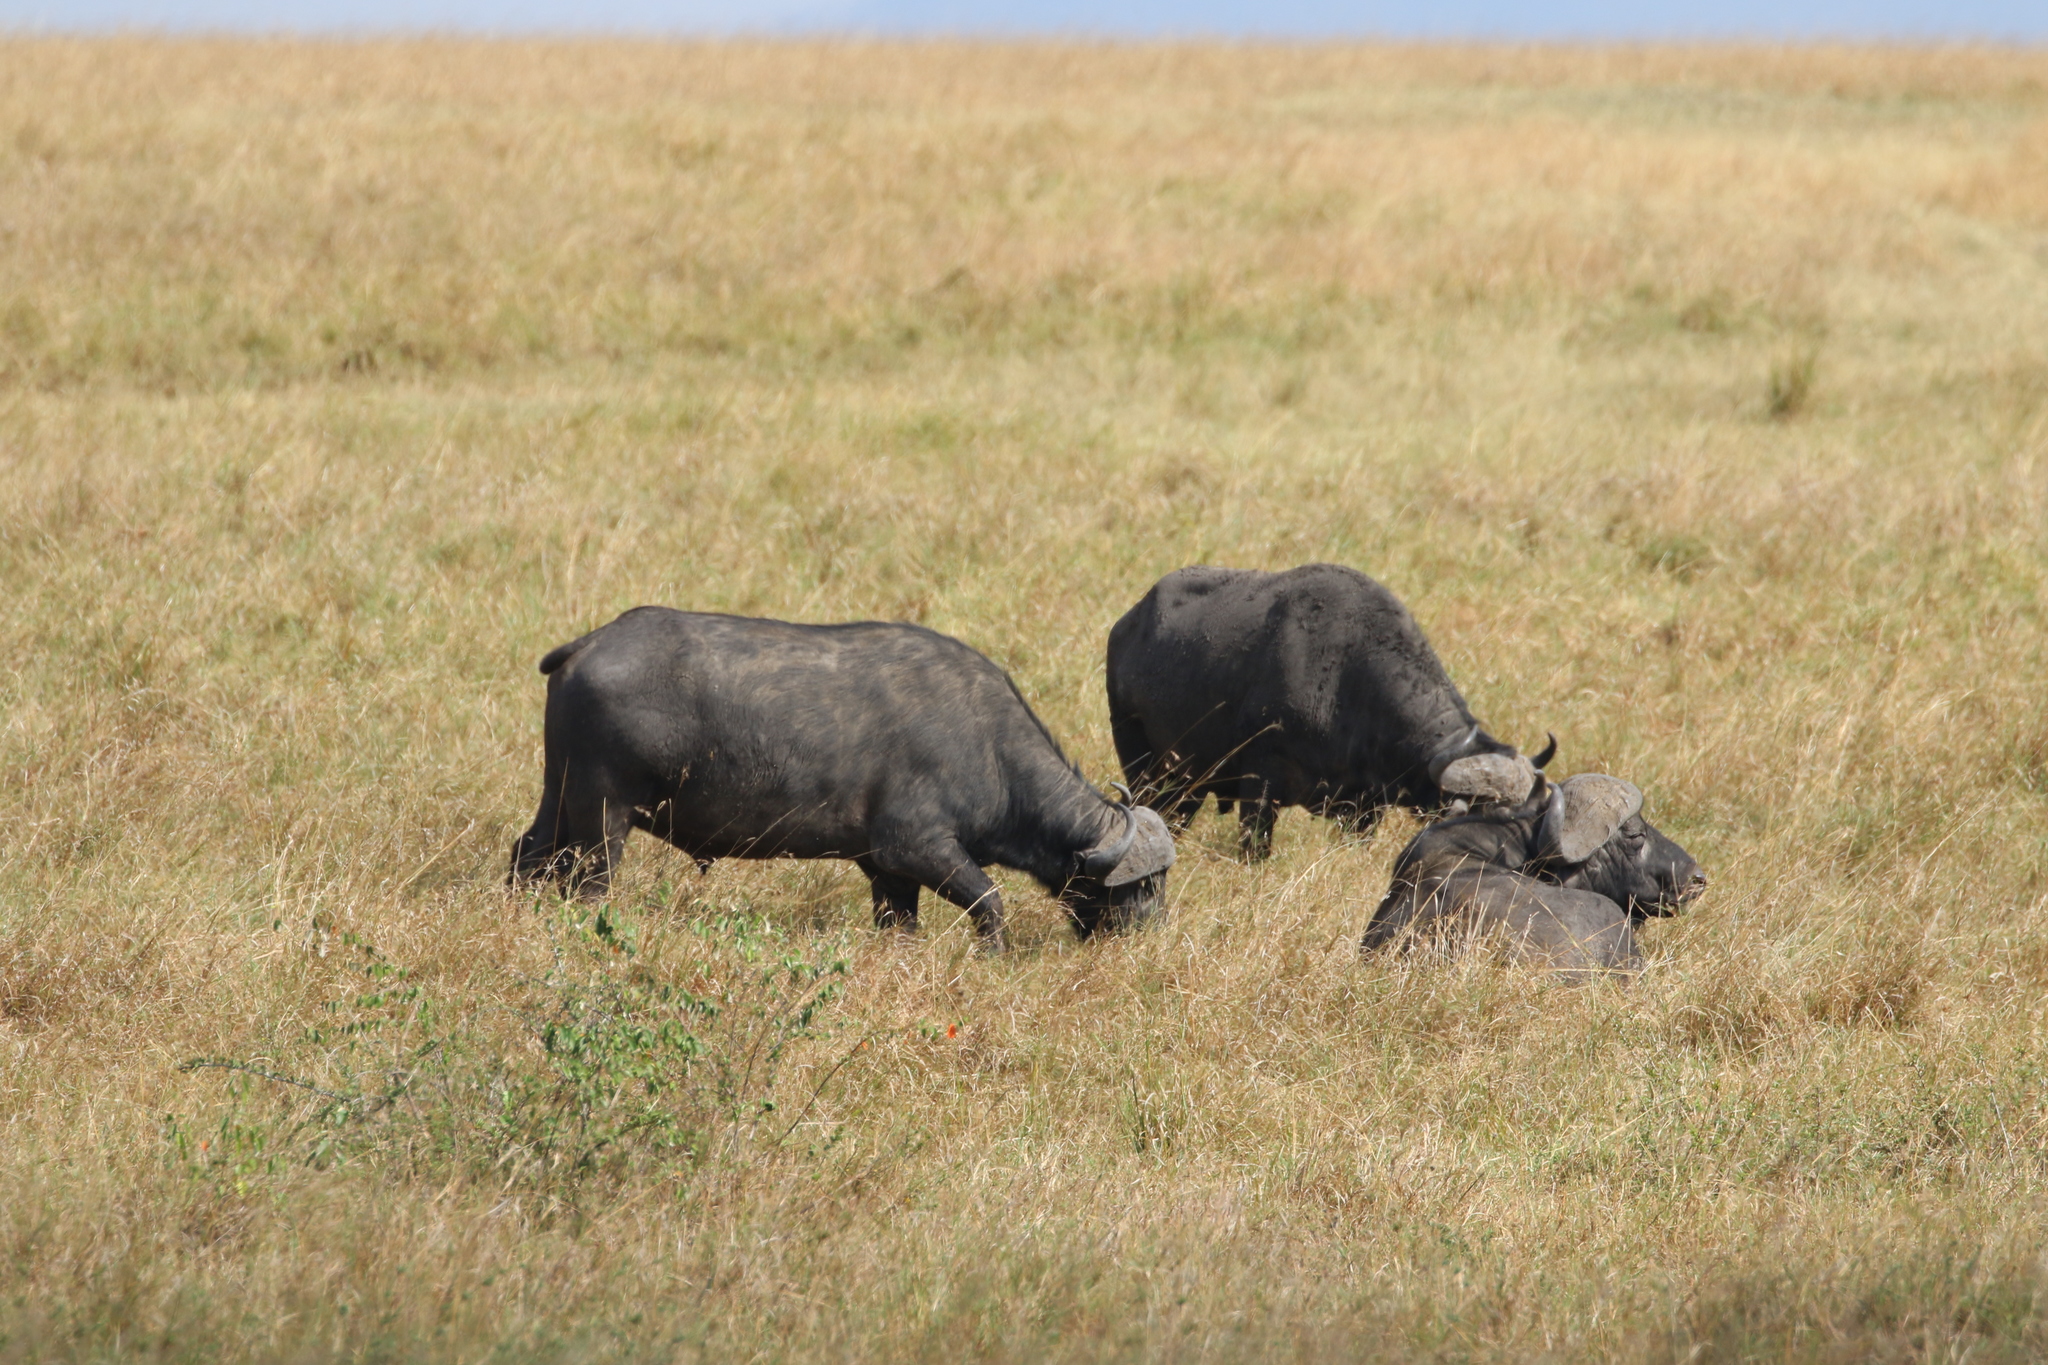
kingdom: Animalia
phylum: Chordata
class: Mammalia
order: Artiodactyla
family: Bovidae
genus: Syncerus
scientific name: Syncerus caffer
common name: African buffalo
